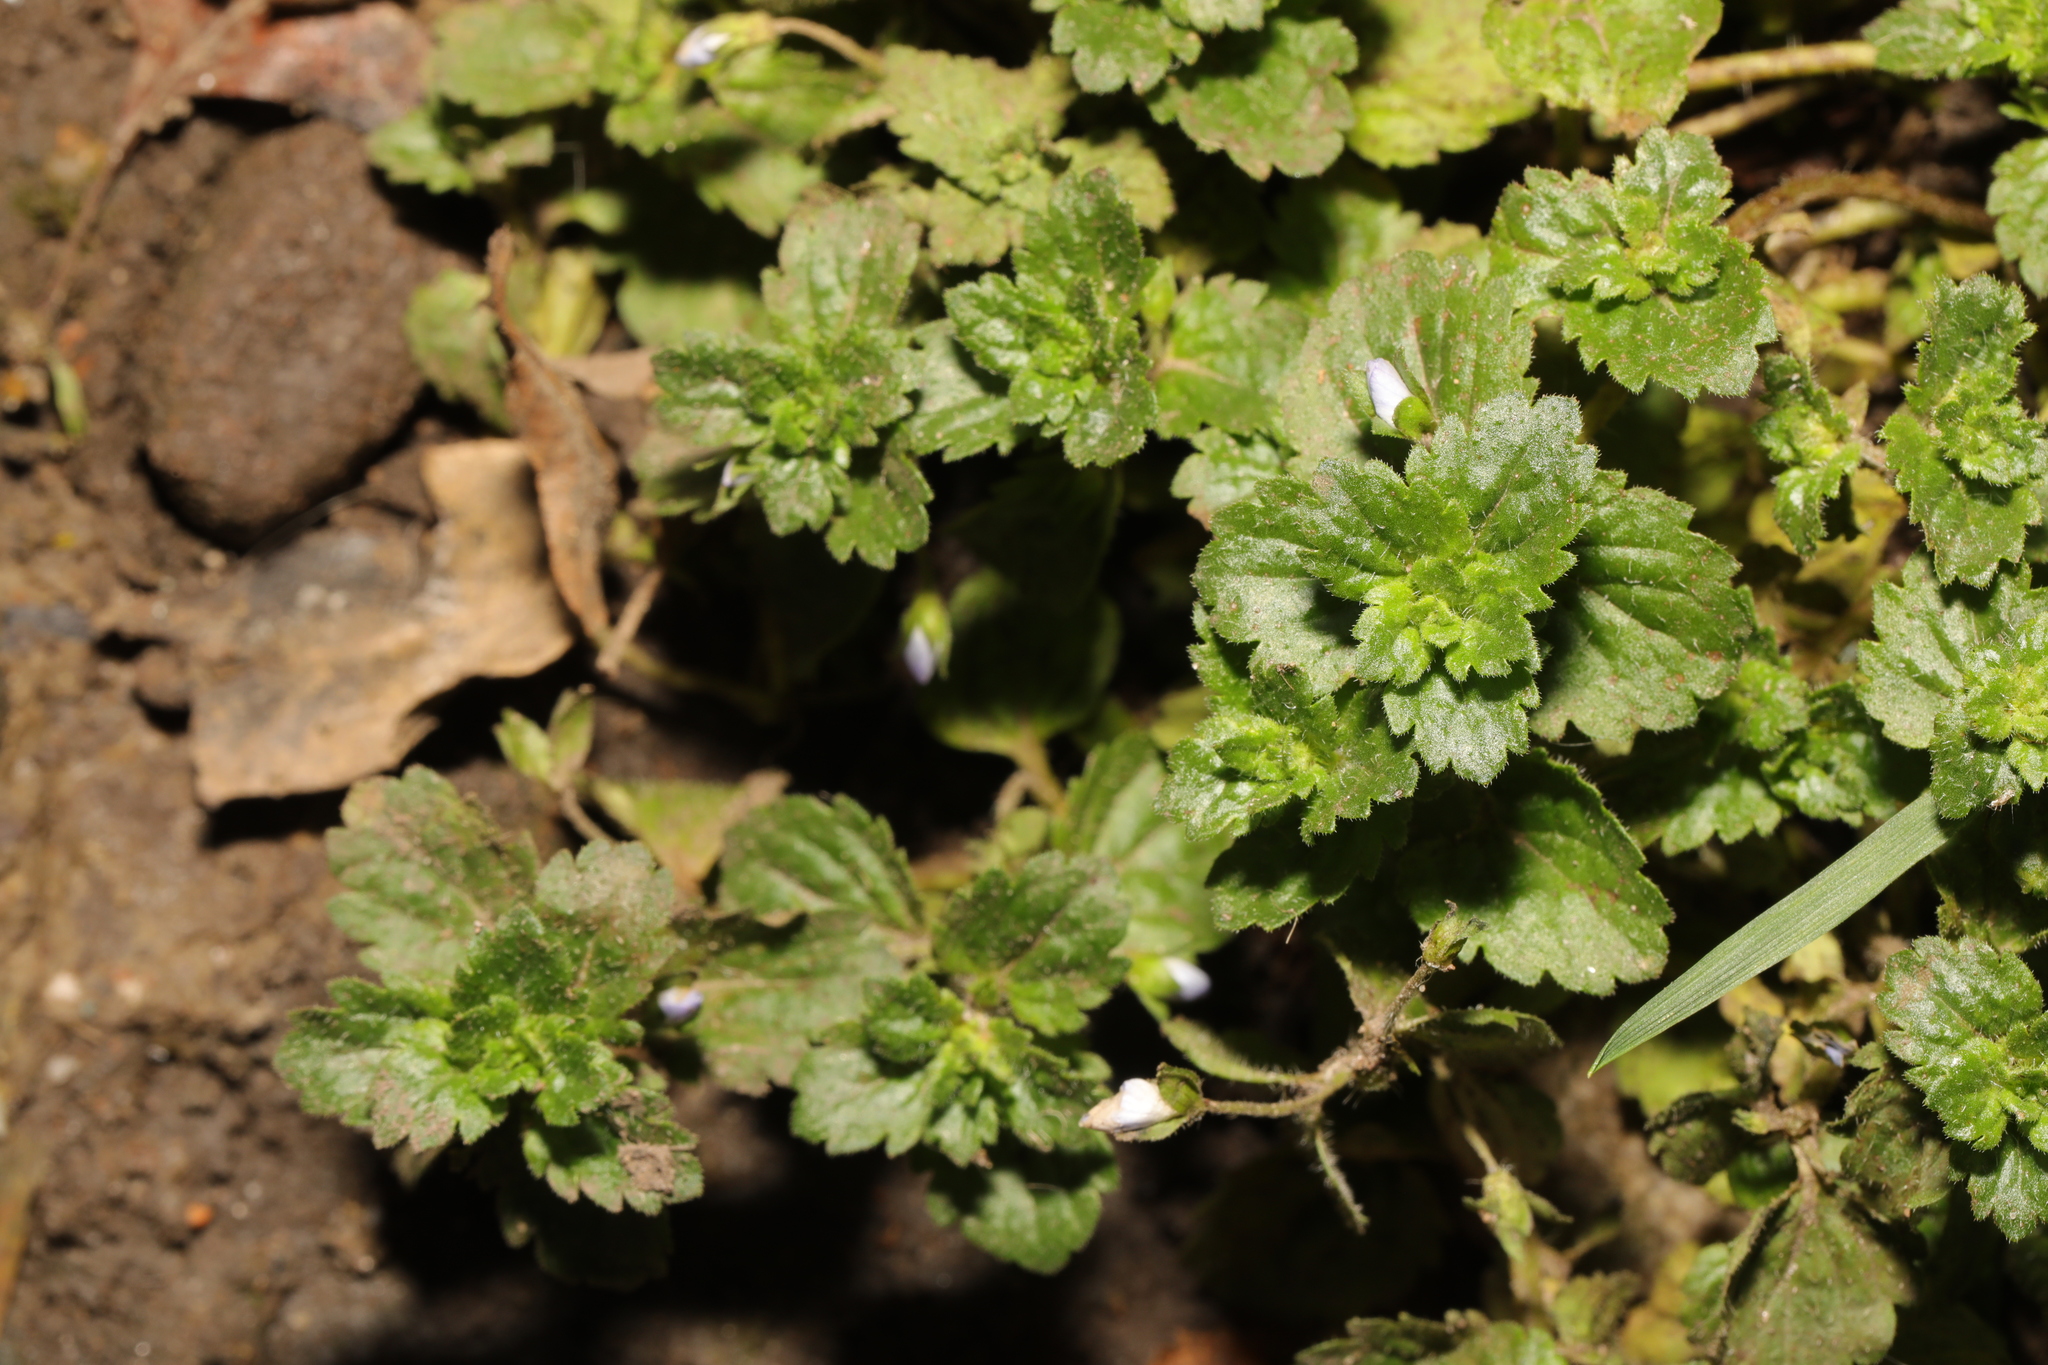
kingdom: Plantae
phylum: Tracheophyta
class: Magnoliopsida
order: Lamiales
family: Plantaginaceae
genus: Veronica
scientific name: Veronica persica
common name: Common field-speedwell
